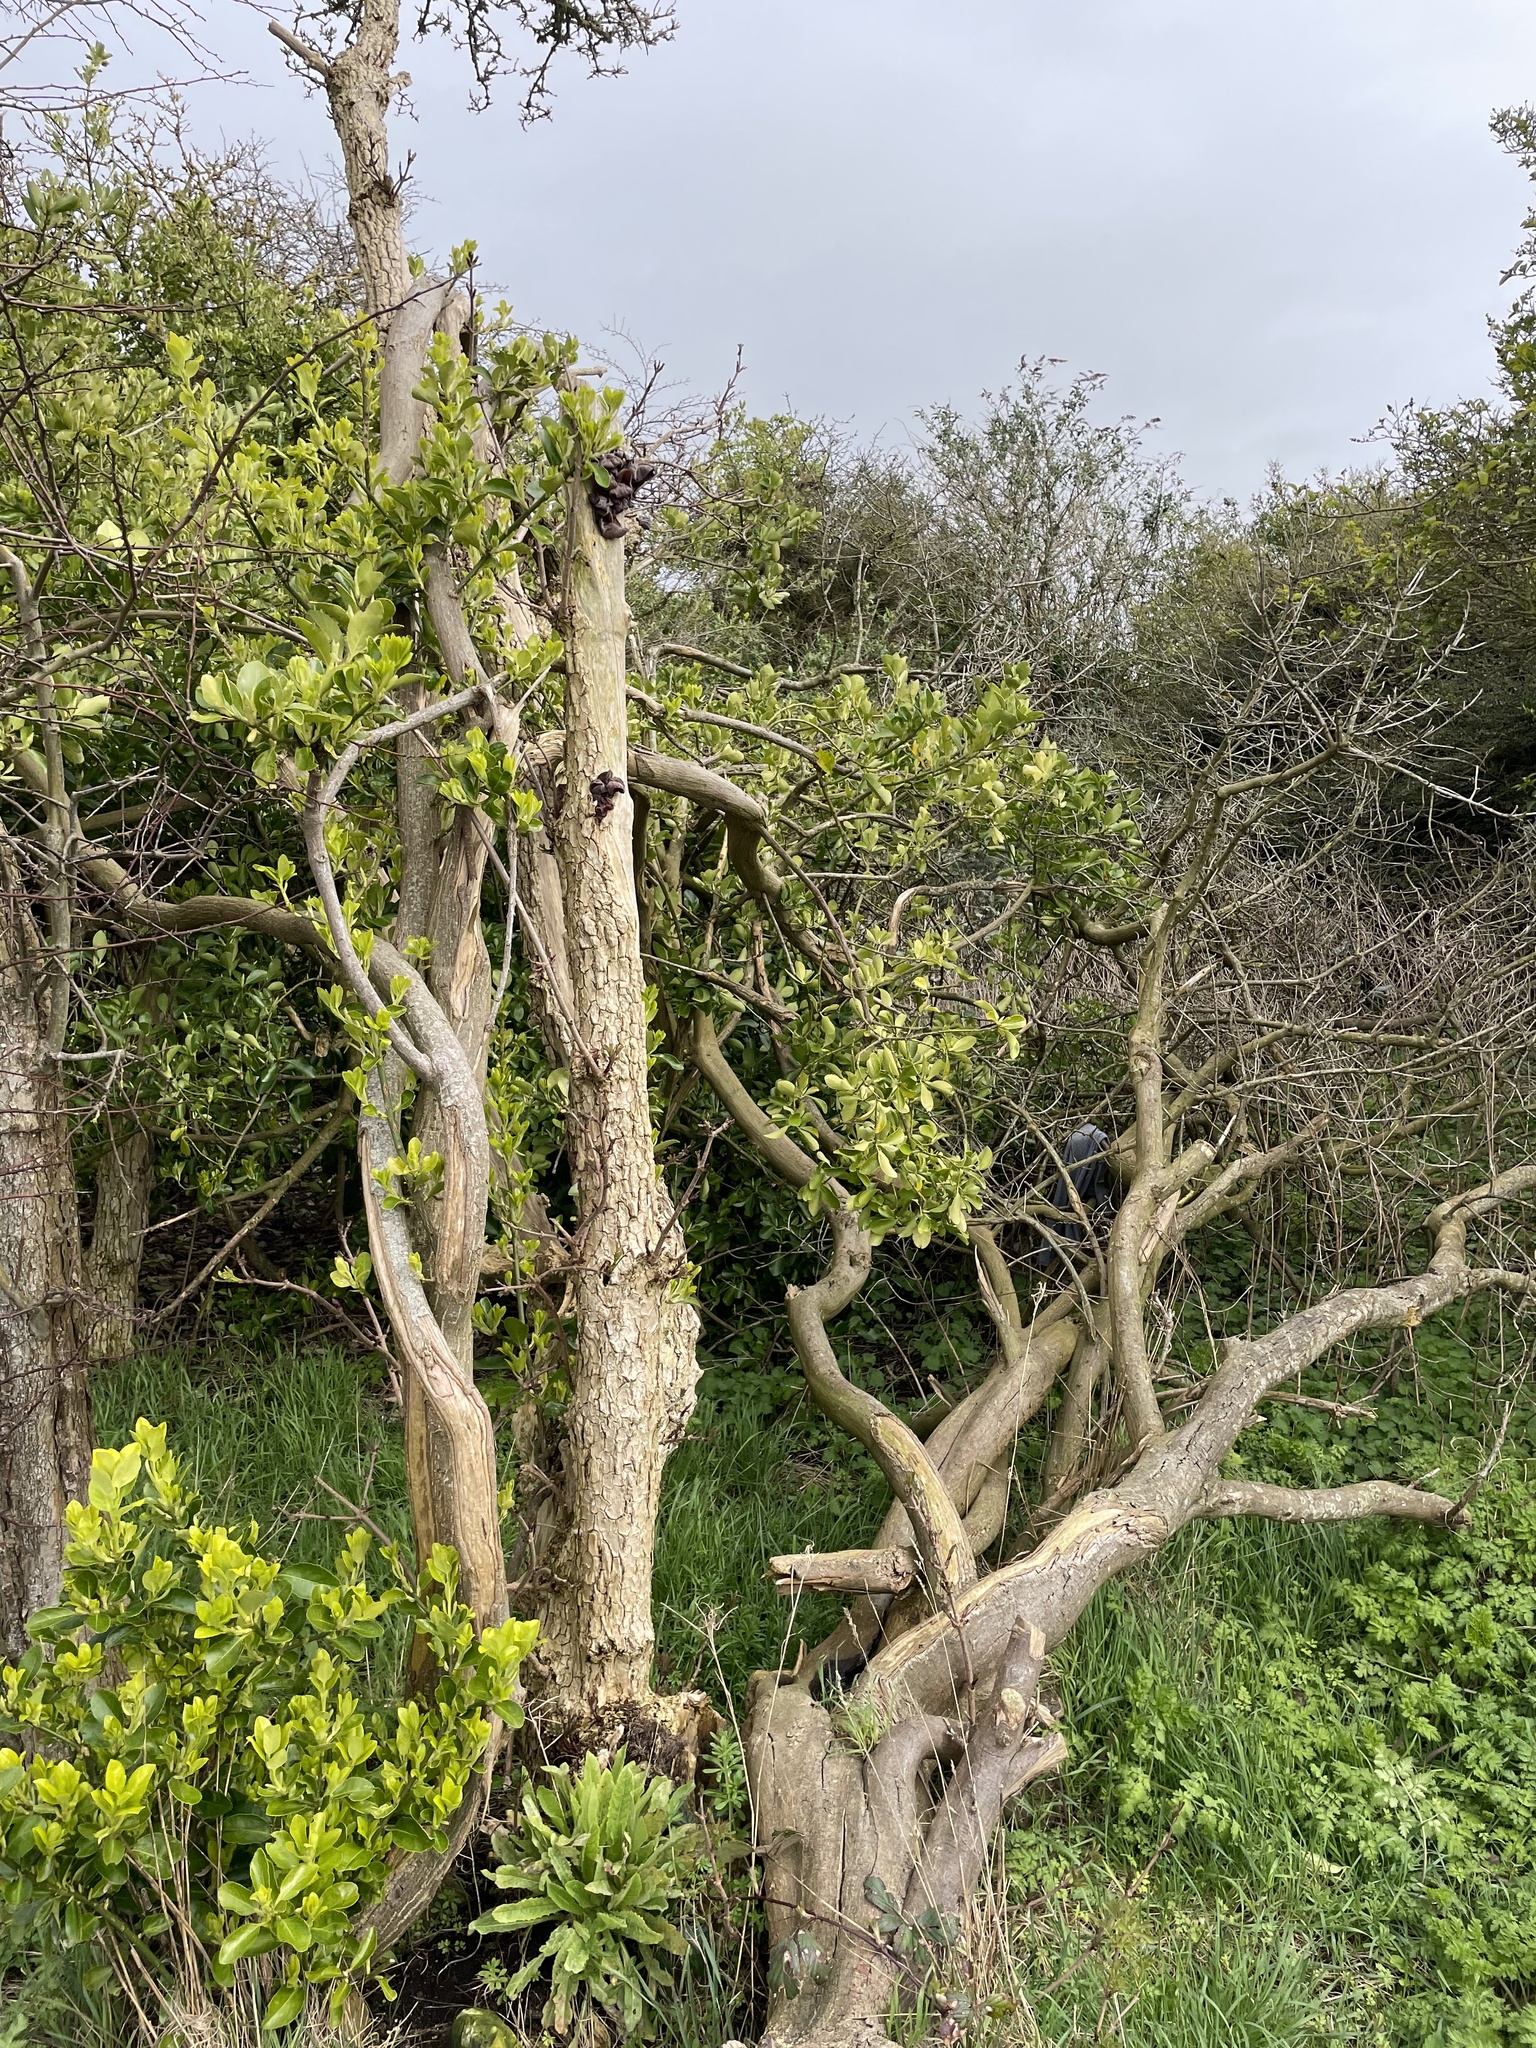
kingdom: Fungi
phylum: Basidiomycota
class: Agaricomycetes
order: Auriculariales
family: Auriculariaceae
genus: Auricularia
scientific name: Auricularia auricula-judae
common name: Jelly ear
